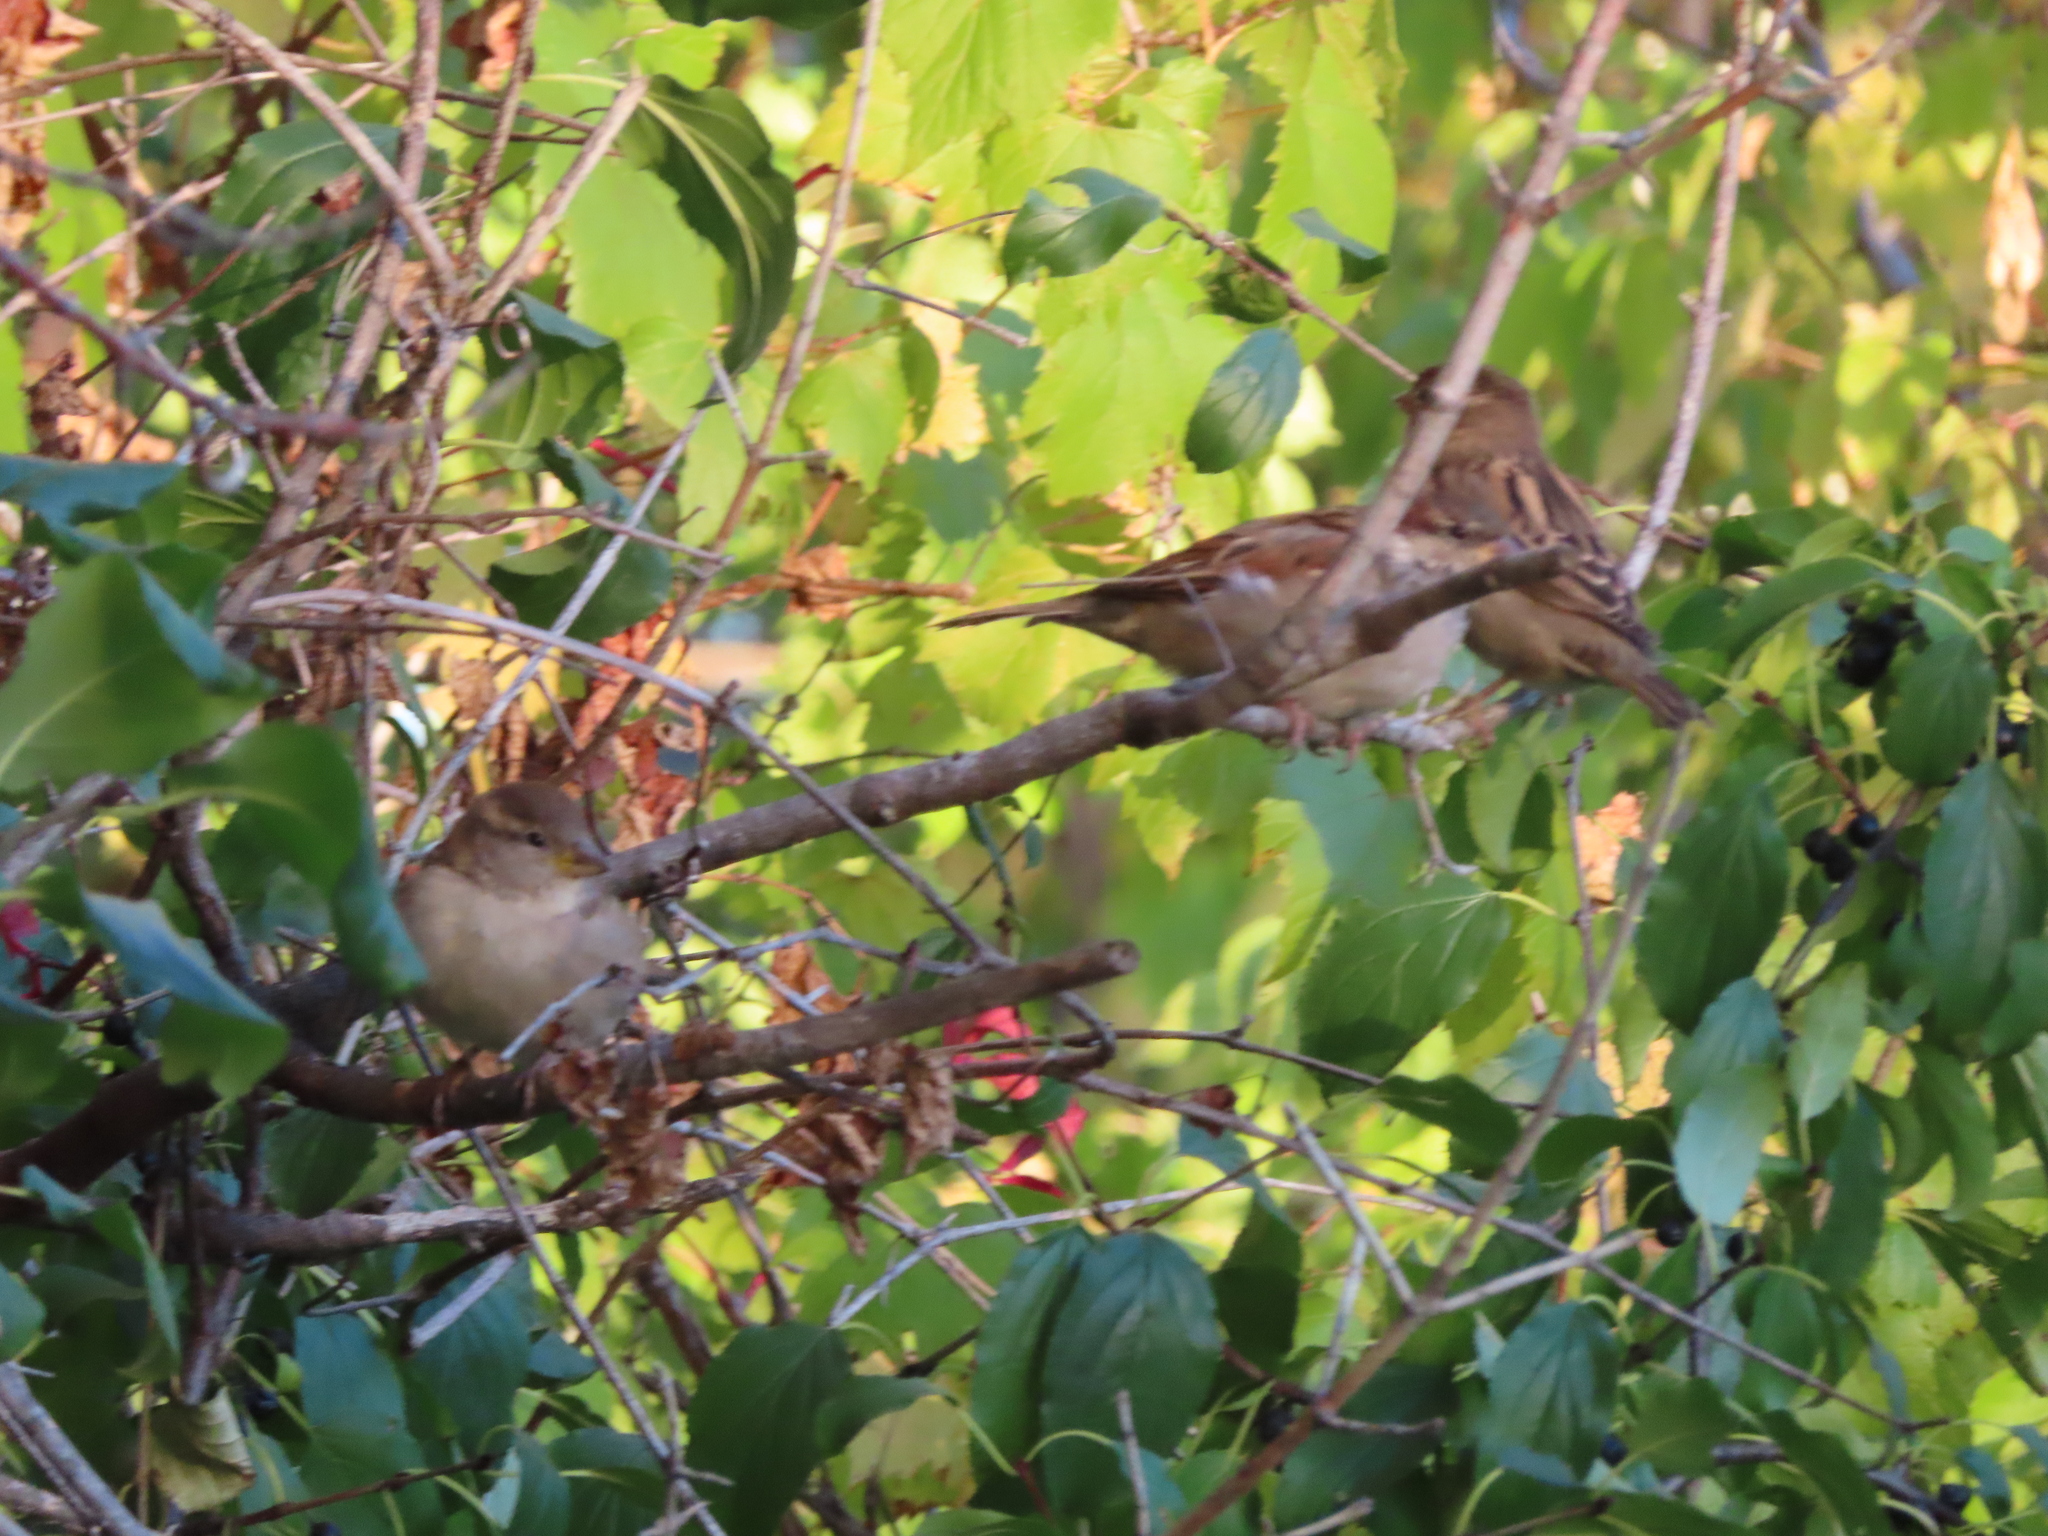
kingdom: Animalia
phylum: Chordata
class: Aves
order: Passeriformes
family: Passeridae
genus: Passer
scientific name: Passer domesticus
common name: House sparrow
